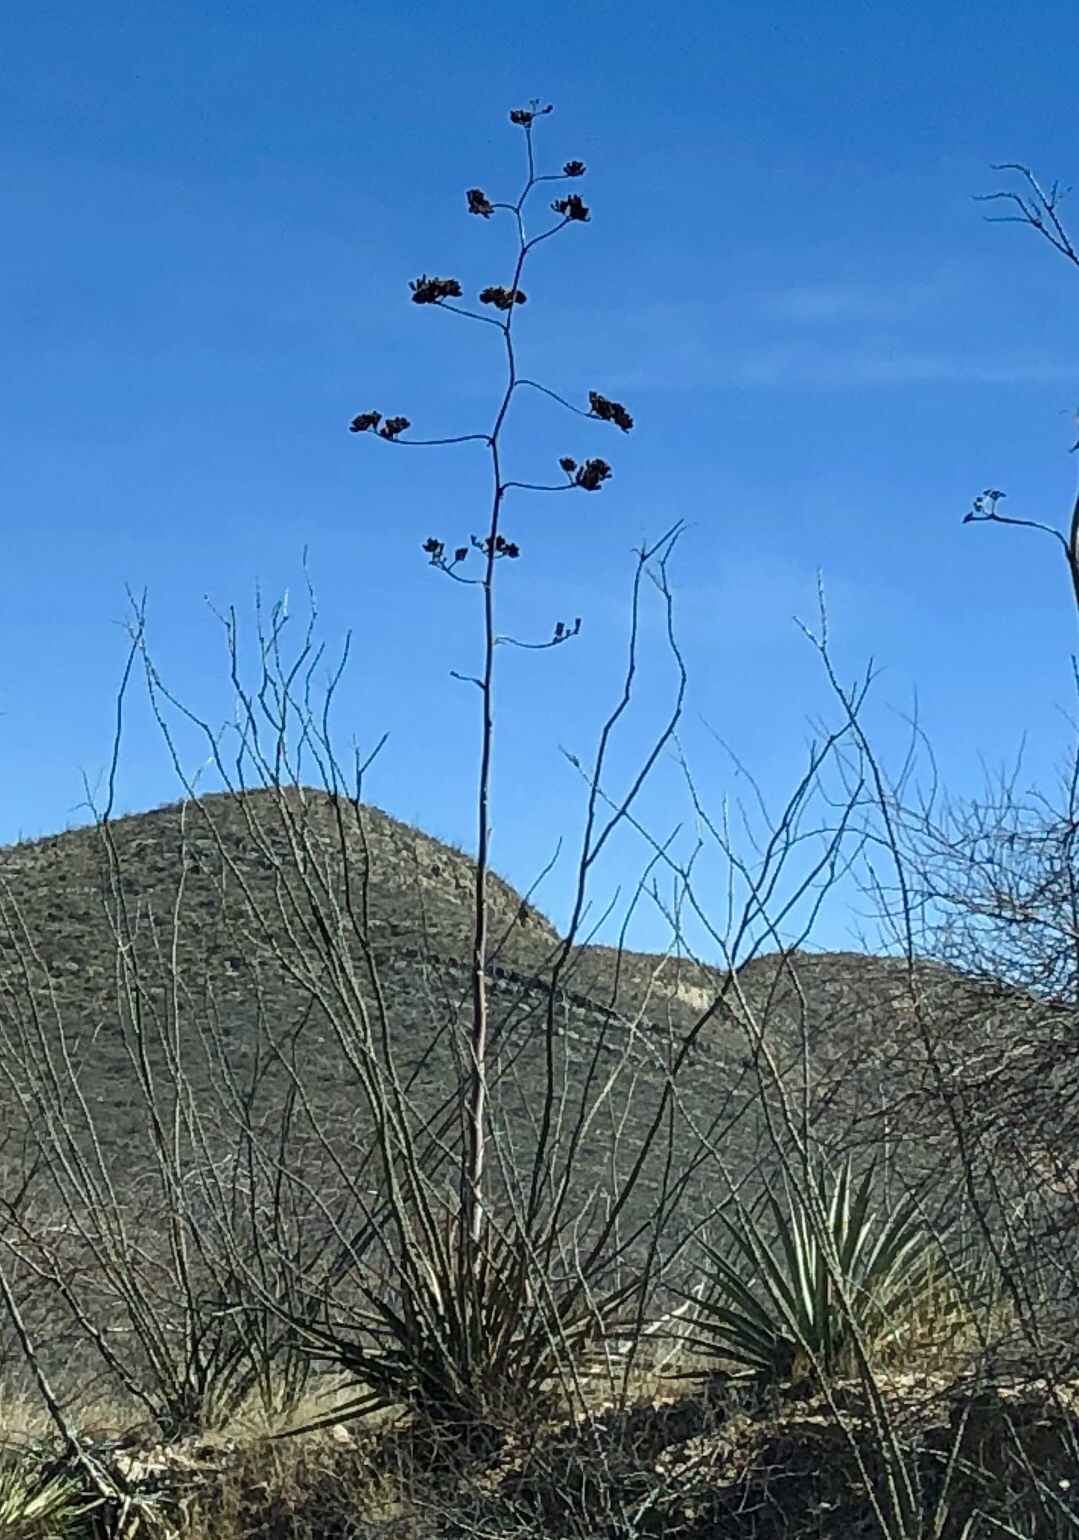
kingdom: Plantae
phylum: Tracheophyta
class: Liliopsida
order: Asparagales
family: Asparagaceae
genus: Agave
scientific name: Agave palmeri
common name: Palmer agave
